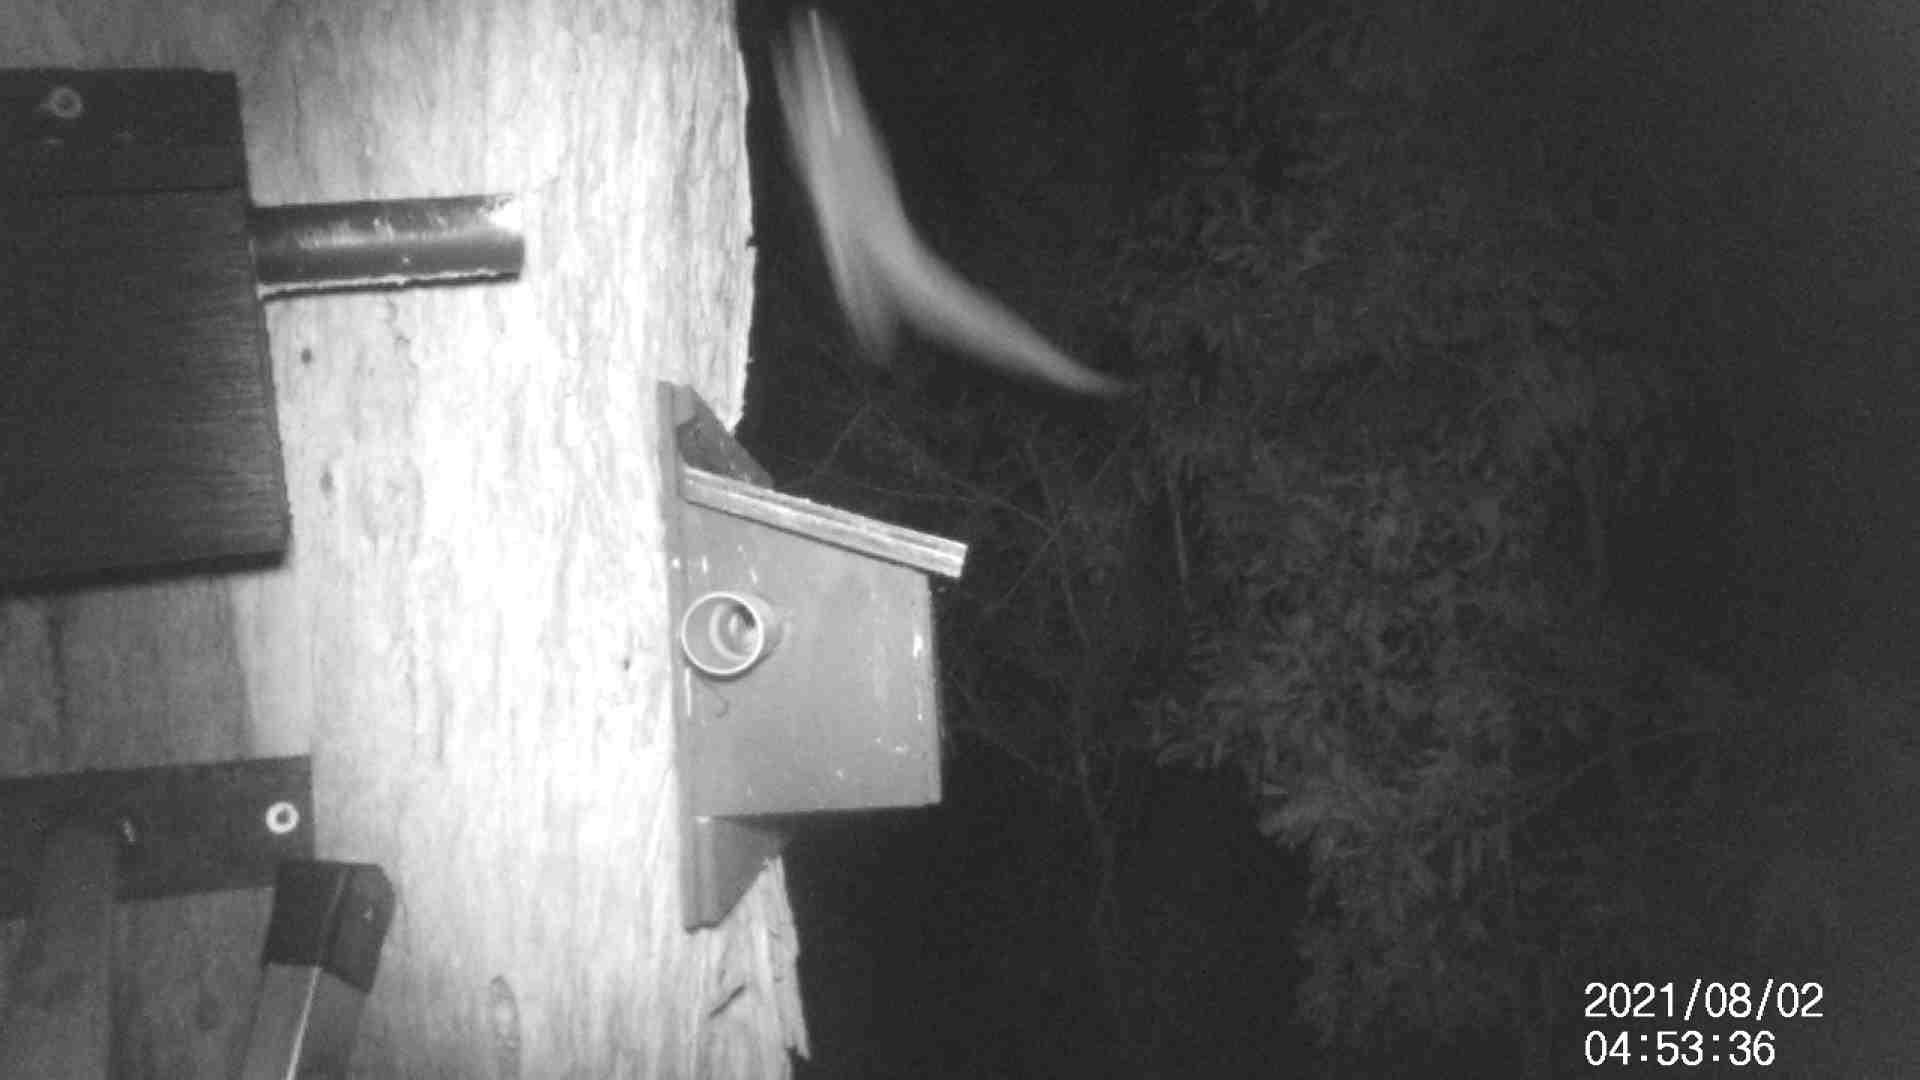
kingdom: Animalia
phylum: Chordata
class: Mammalia
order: Diprotodontia
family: Petauridae
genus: Petaurus
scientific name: Petaurus breviceps
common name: Sugar glider
